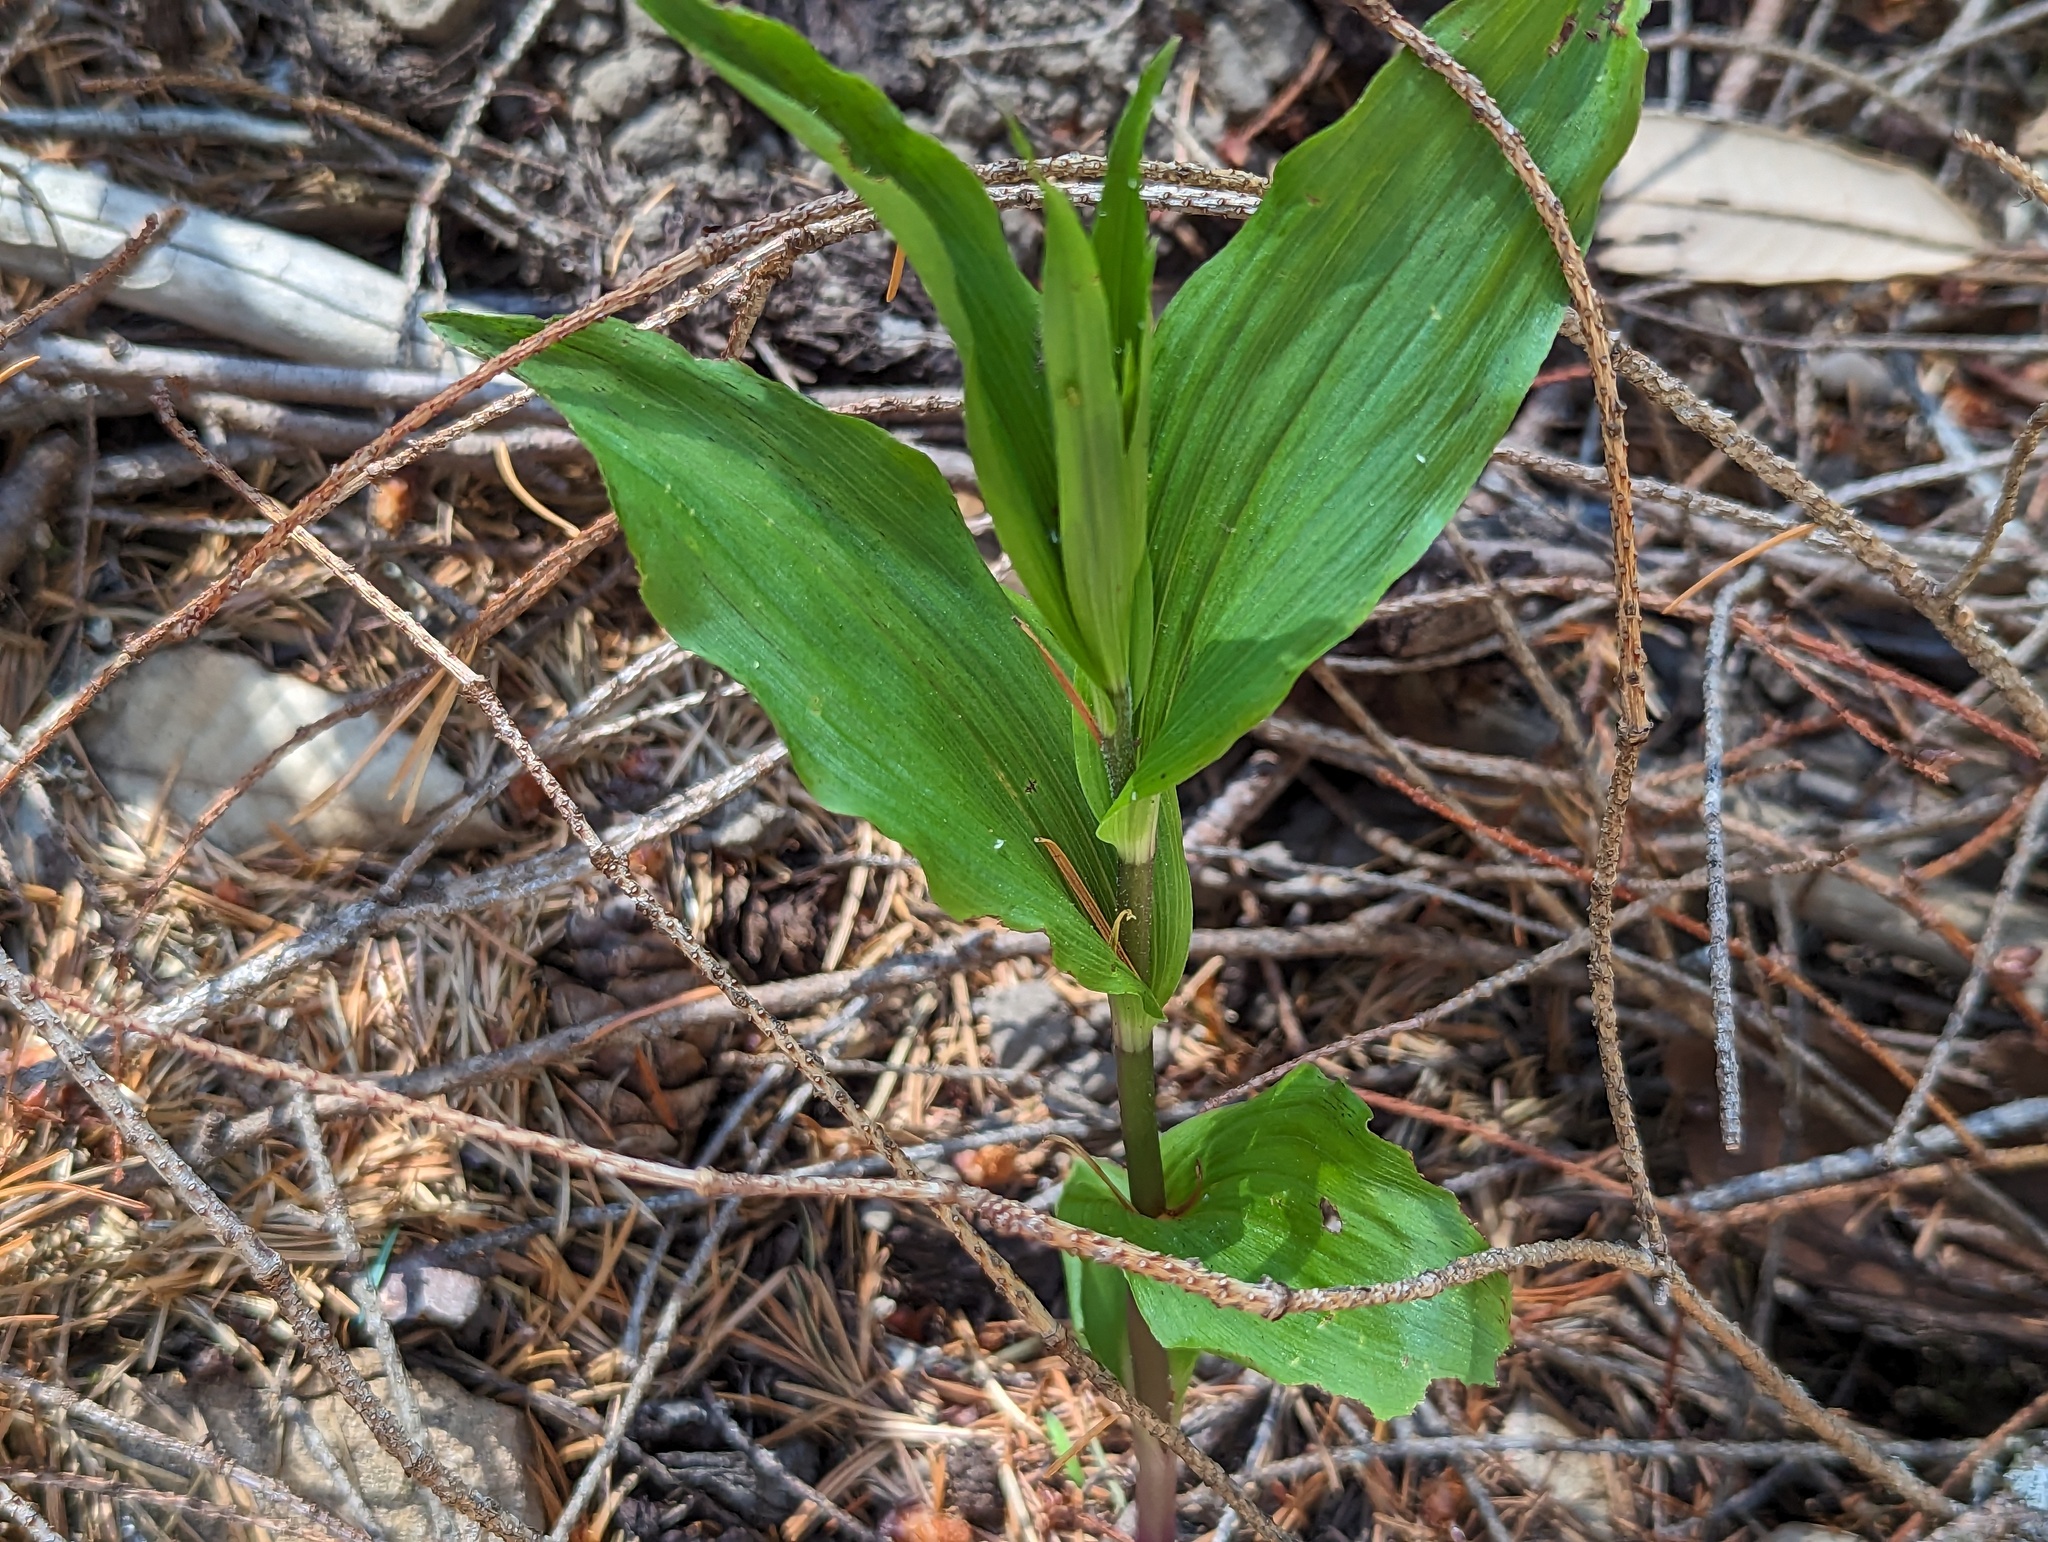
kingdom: Plantae
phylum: Tracheophyta
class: Liliopsida
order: Asparagales
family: Orchidaceae
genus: Epipactis
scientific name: Epipactis helleborine
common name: Broad-leaved helleborine
